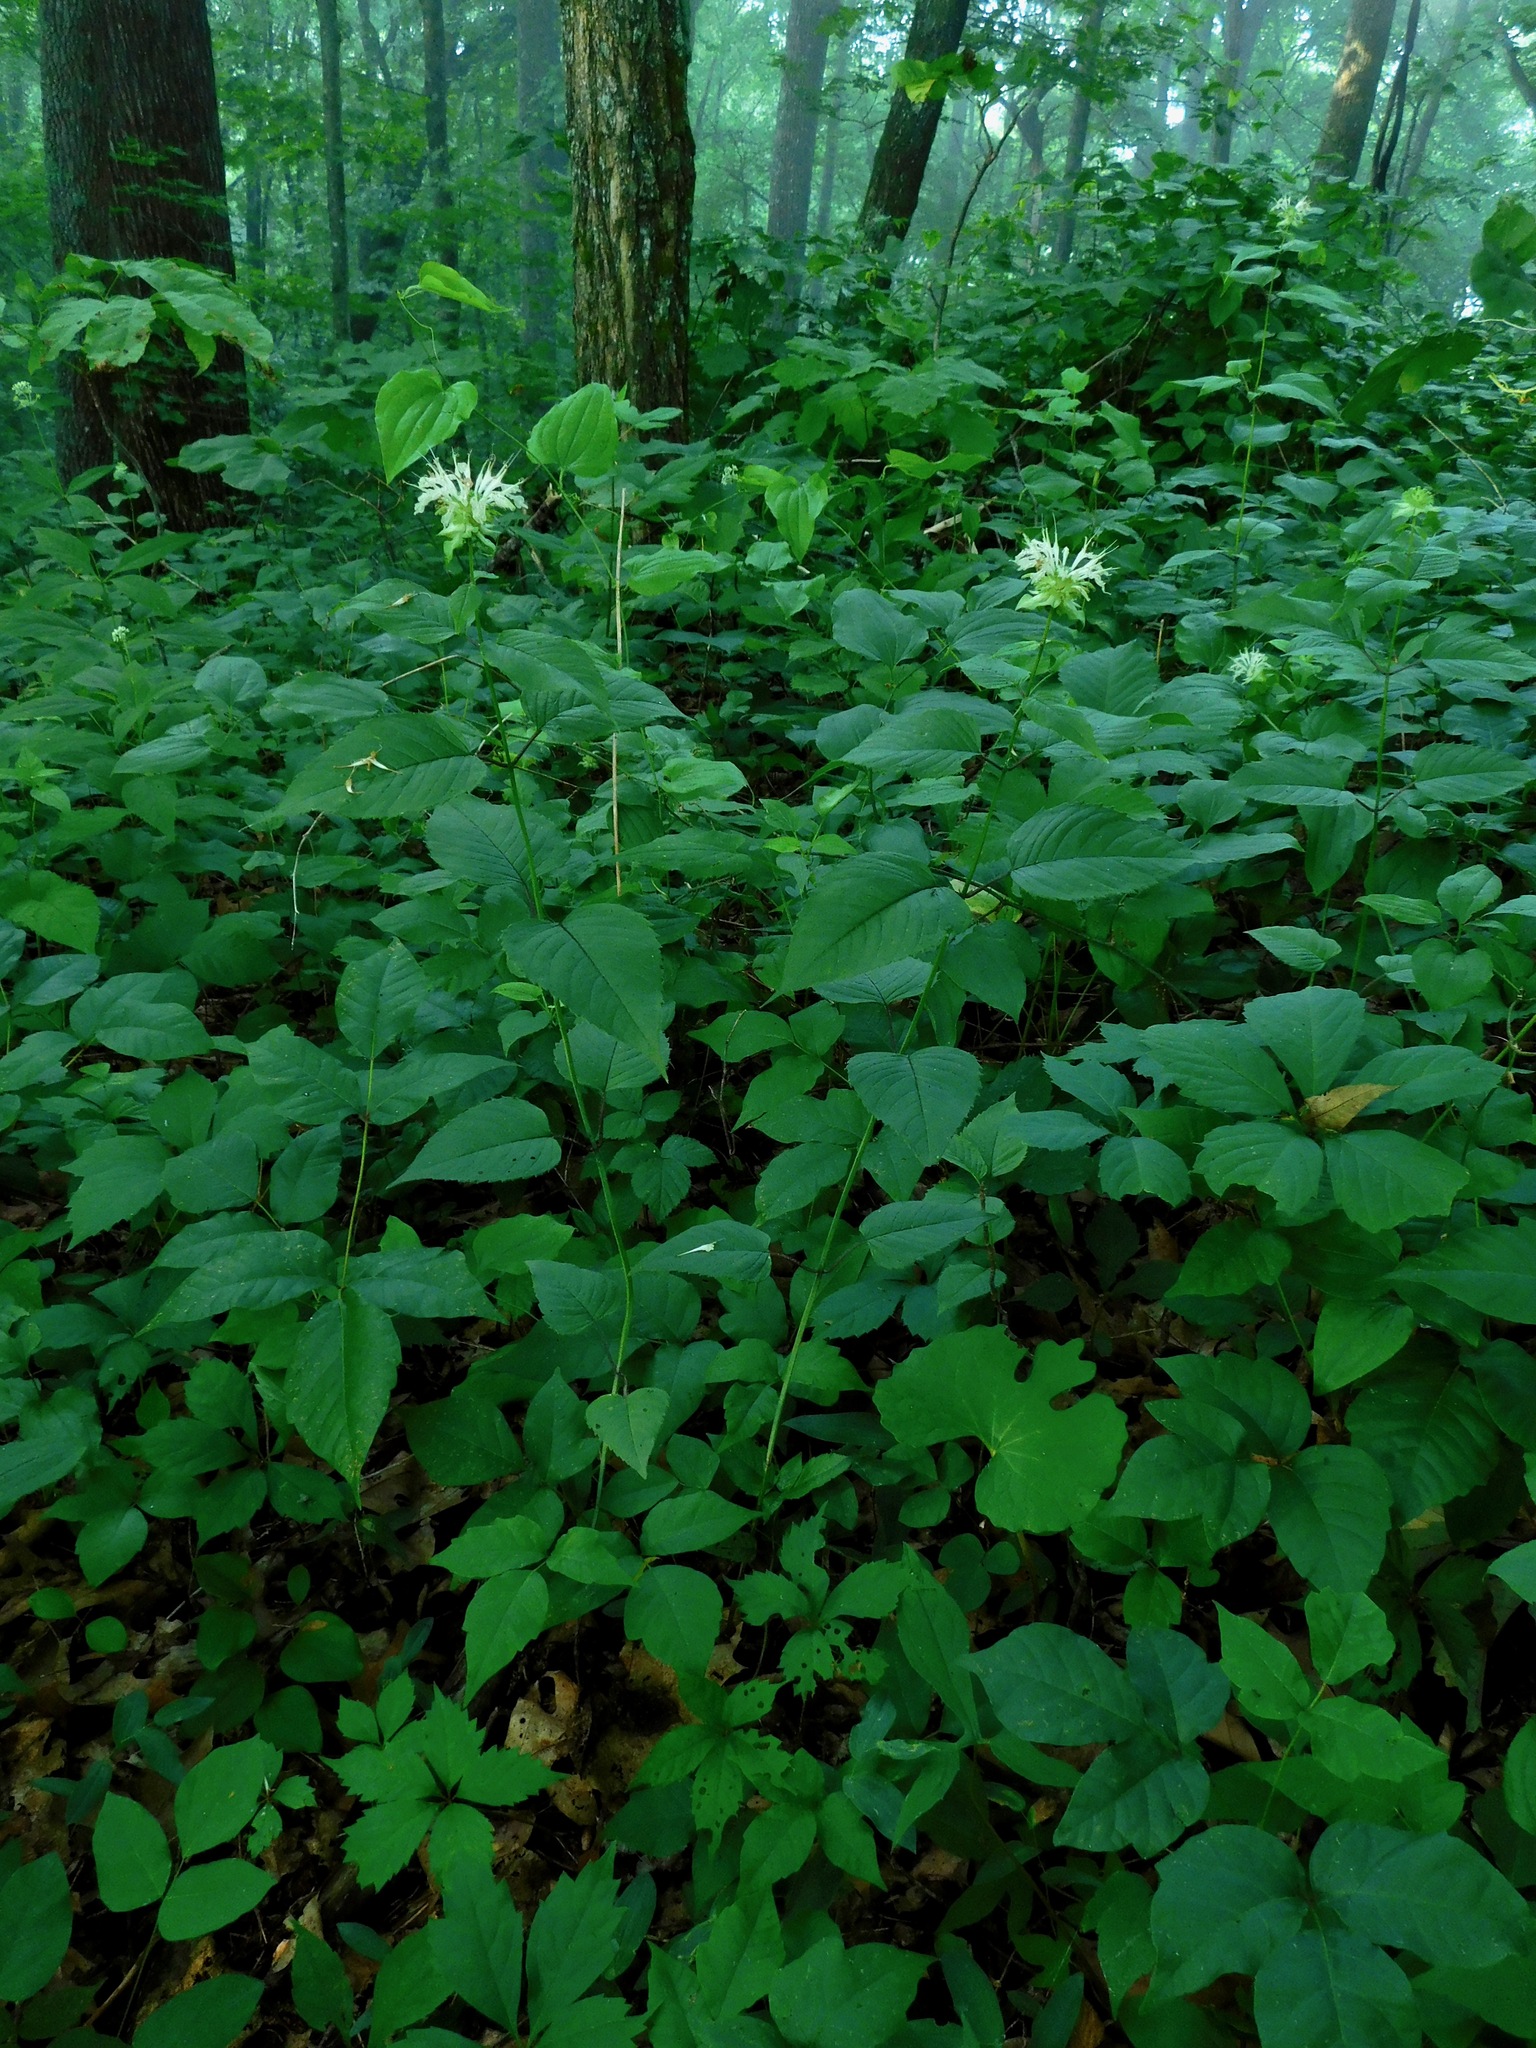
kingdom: Plantae
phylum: Tracheophyta
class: Magnoliopsida
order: Lamiales
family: Lamiaceae
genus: Monarda
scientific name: Monarda clinopodia
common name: Basil beebalm
